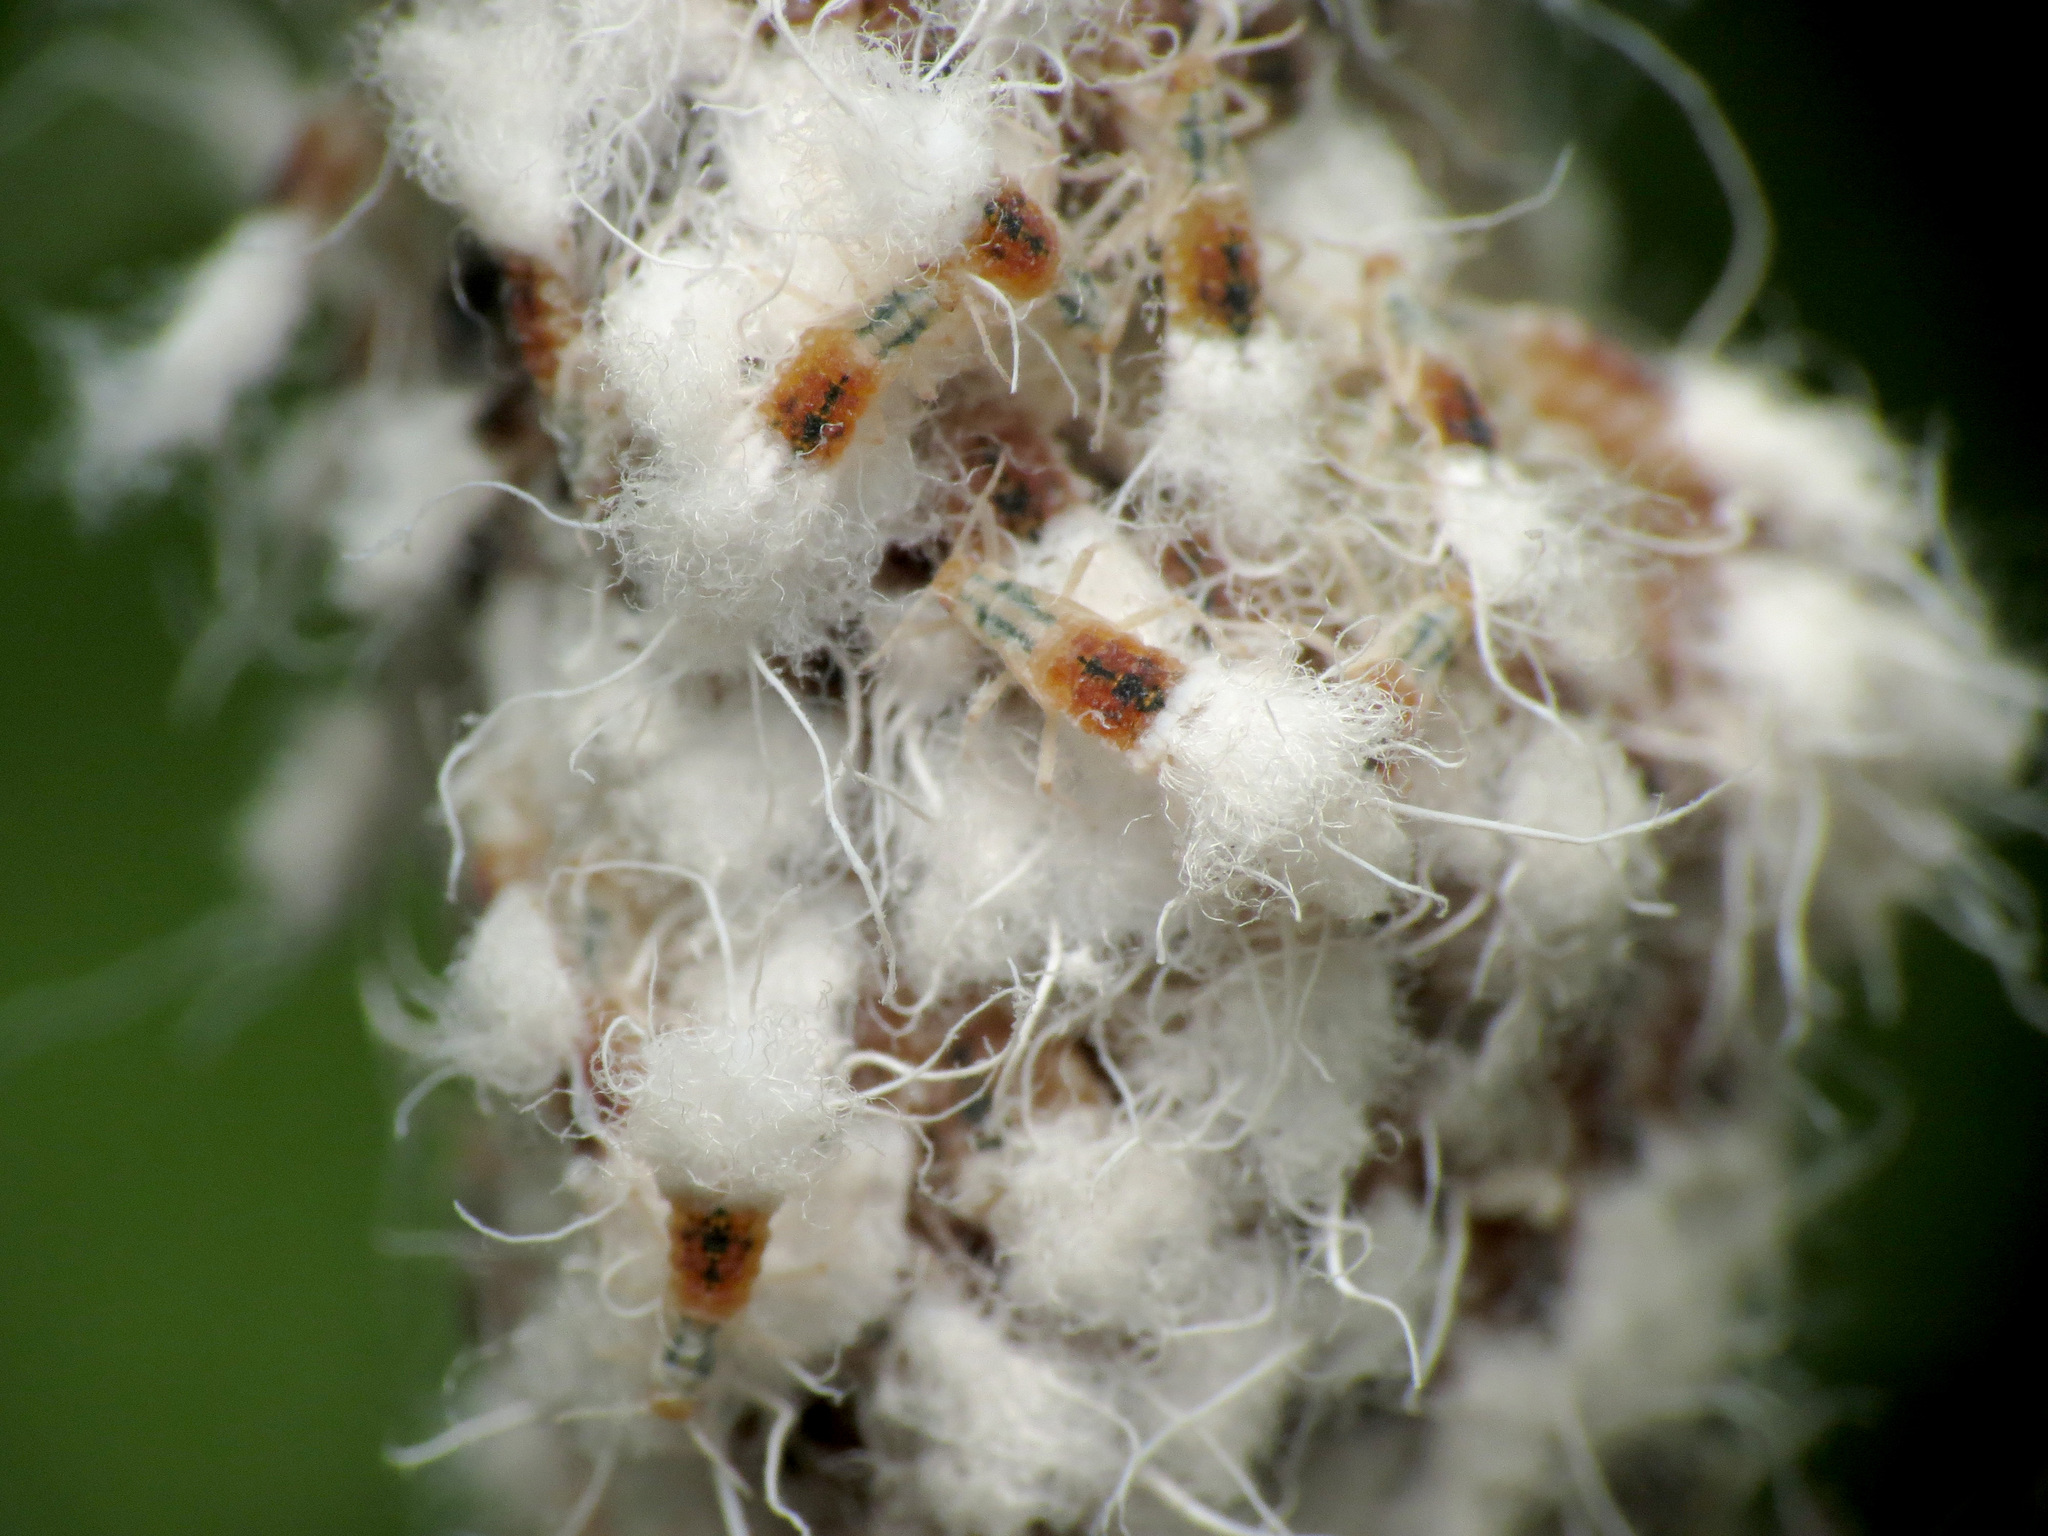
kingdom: Animalia
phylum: Arthropoda
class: Insecta
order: Hemiptera
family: Aphididae
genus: Grylloprociphilus
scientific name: Grylloprociphilus imbricator
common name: Beech blight aphid
